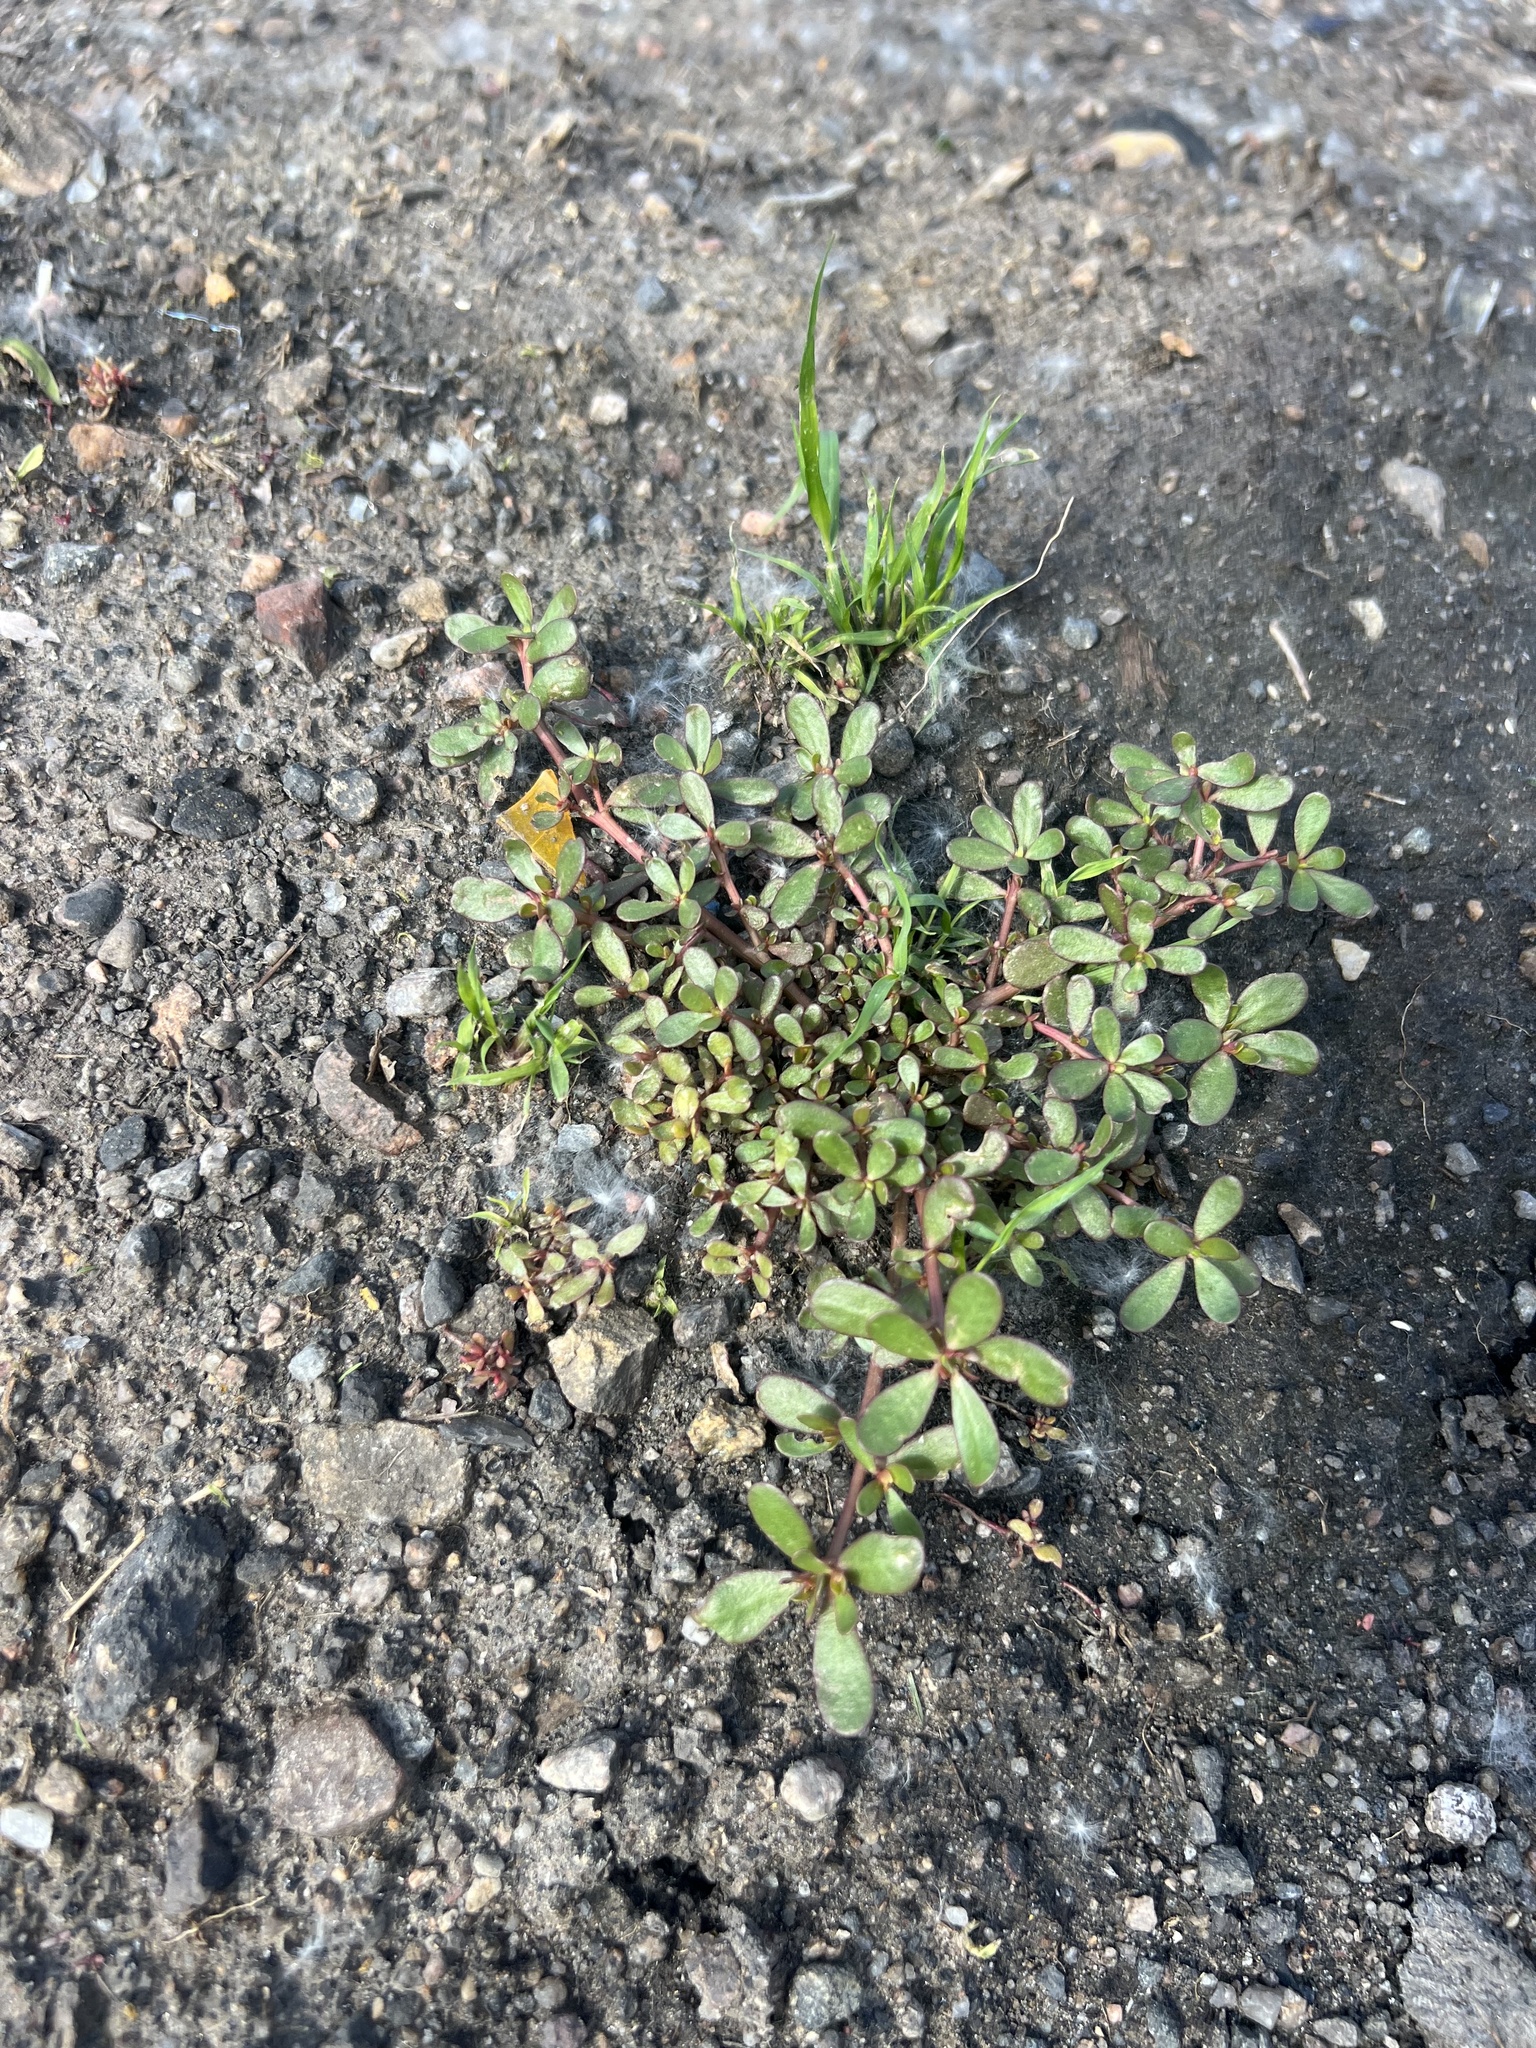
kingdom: Plantae
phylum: Tracheophyta
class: Magnoliopsida
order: Caryophyllales
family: Portulacaceae
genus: Portulaca
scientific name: Portulaca oleracea
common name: Common purslane
